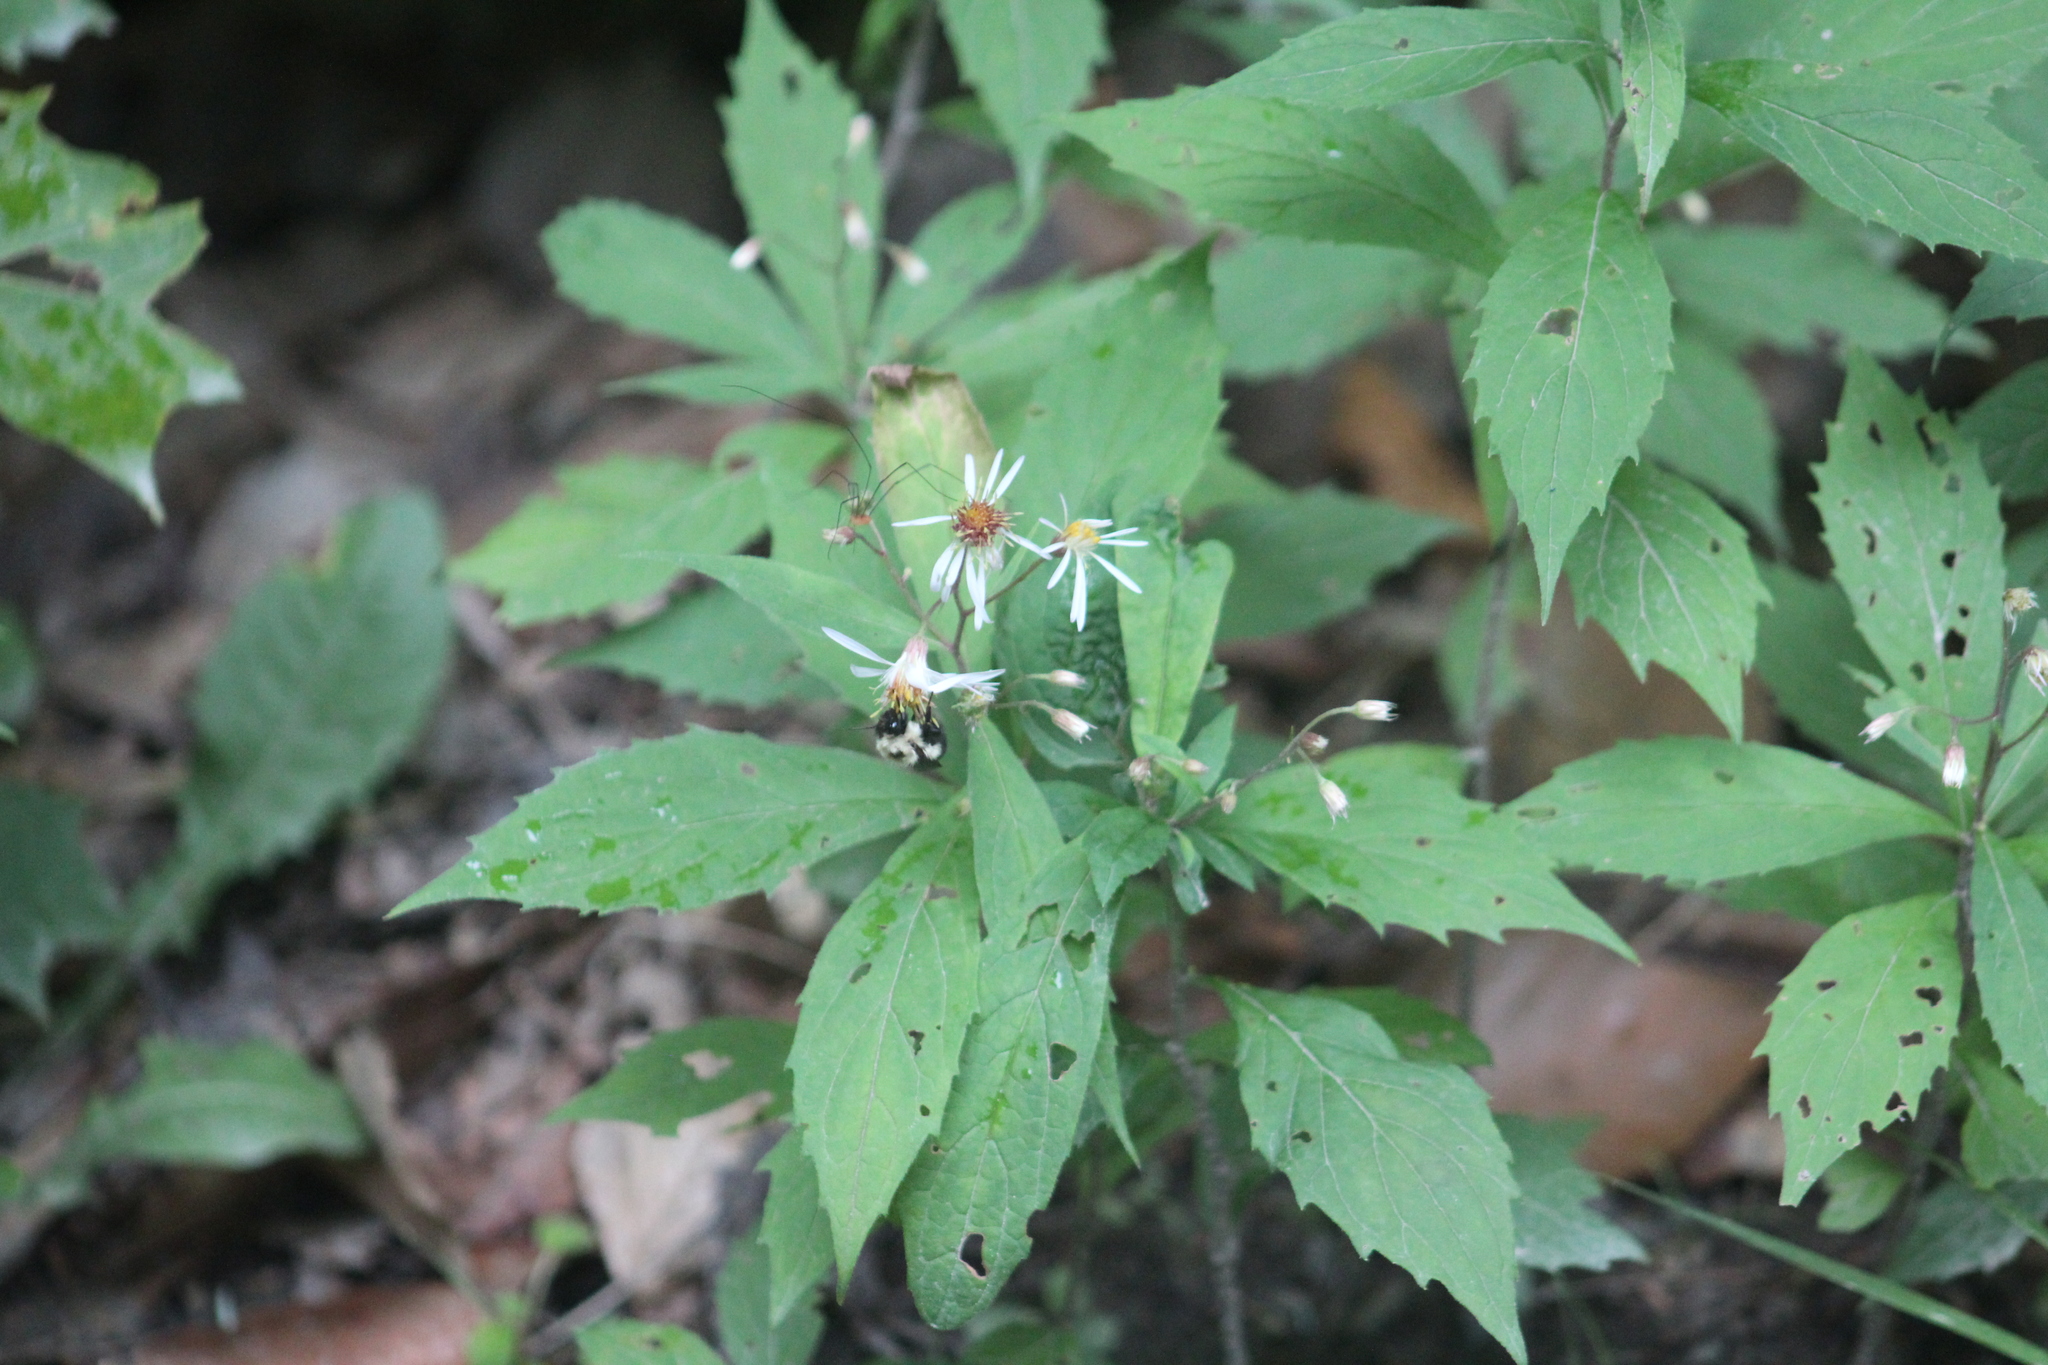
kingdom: Plantae
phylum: Tracheophyta
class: Magnoliopsida
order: Asterales
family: Asteraceae
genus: Oclemena
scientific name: Oclemena acuminata
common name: Mountain aster
